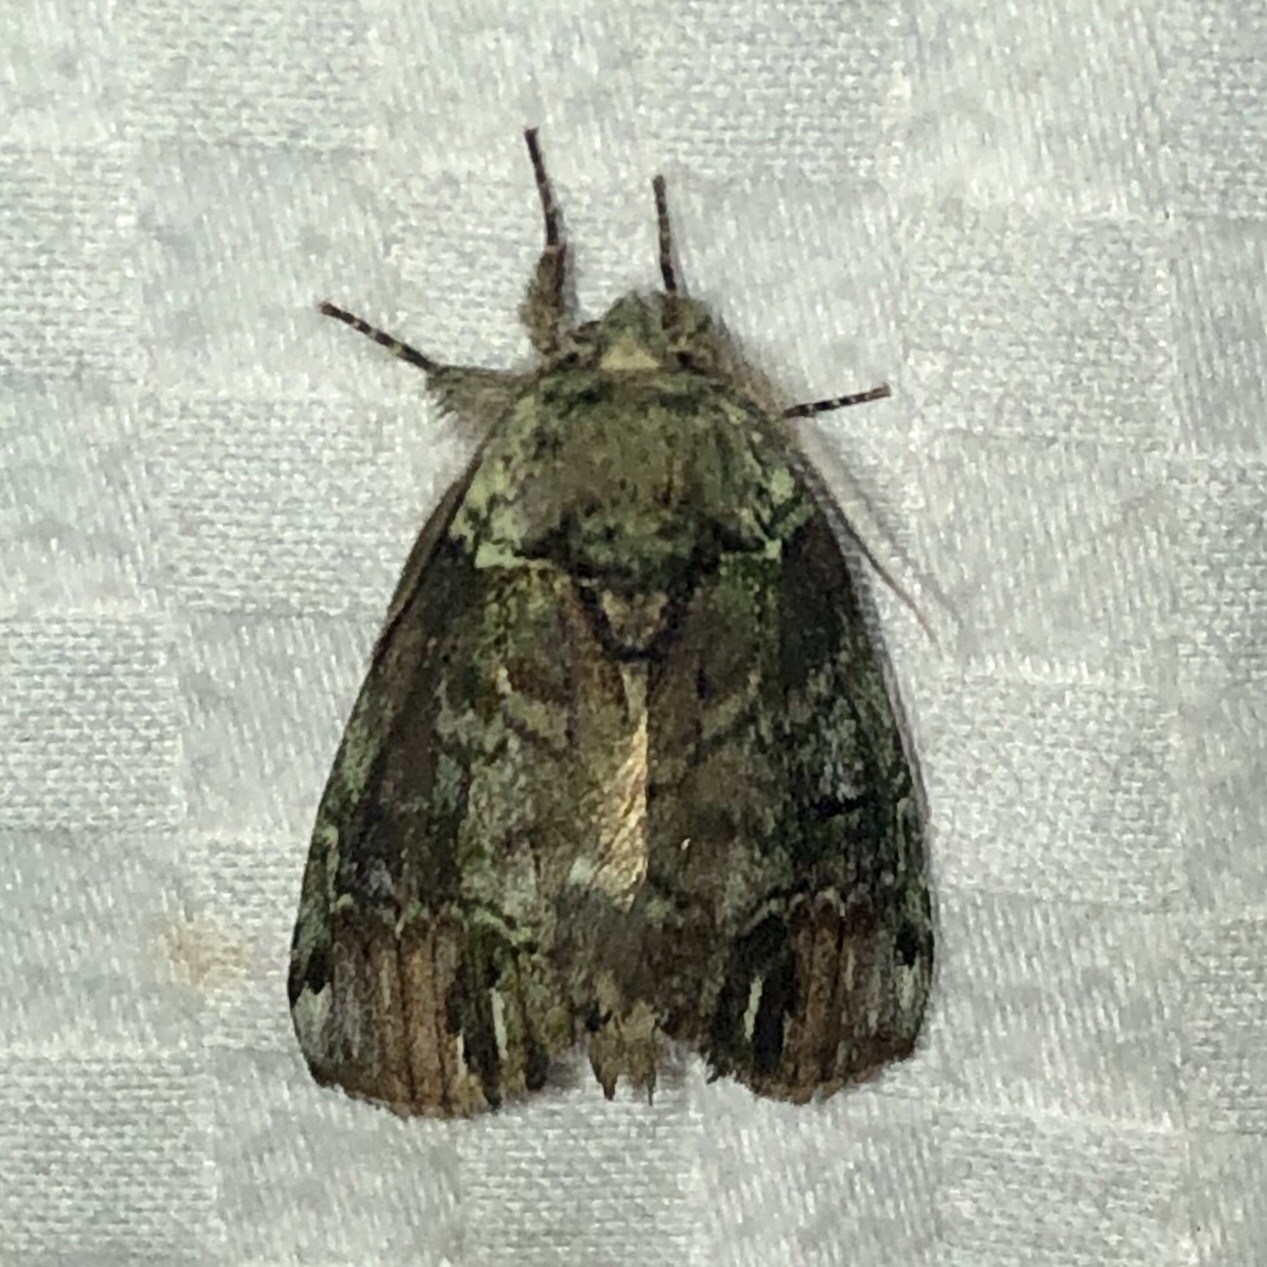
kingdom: Animalia
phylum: Arthropoda
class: Insecta
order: Lepidoptera
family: Notodontidae
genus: Schizura
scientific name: Schizura
